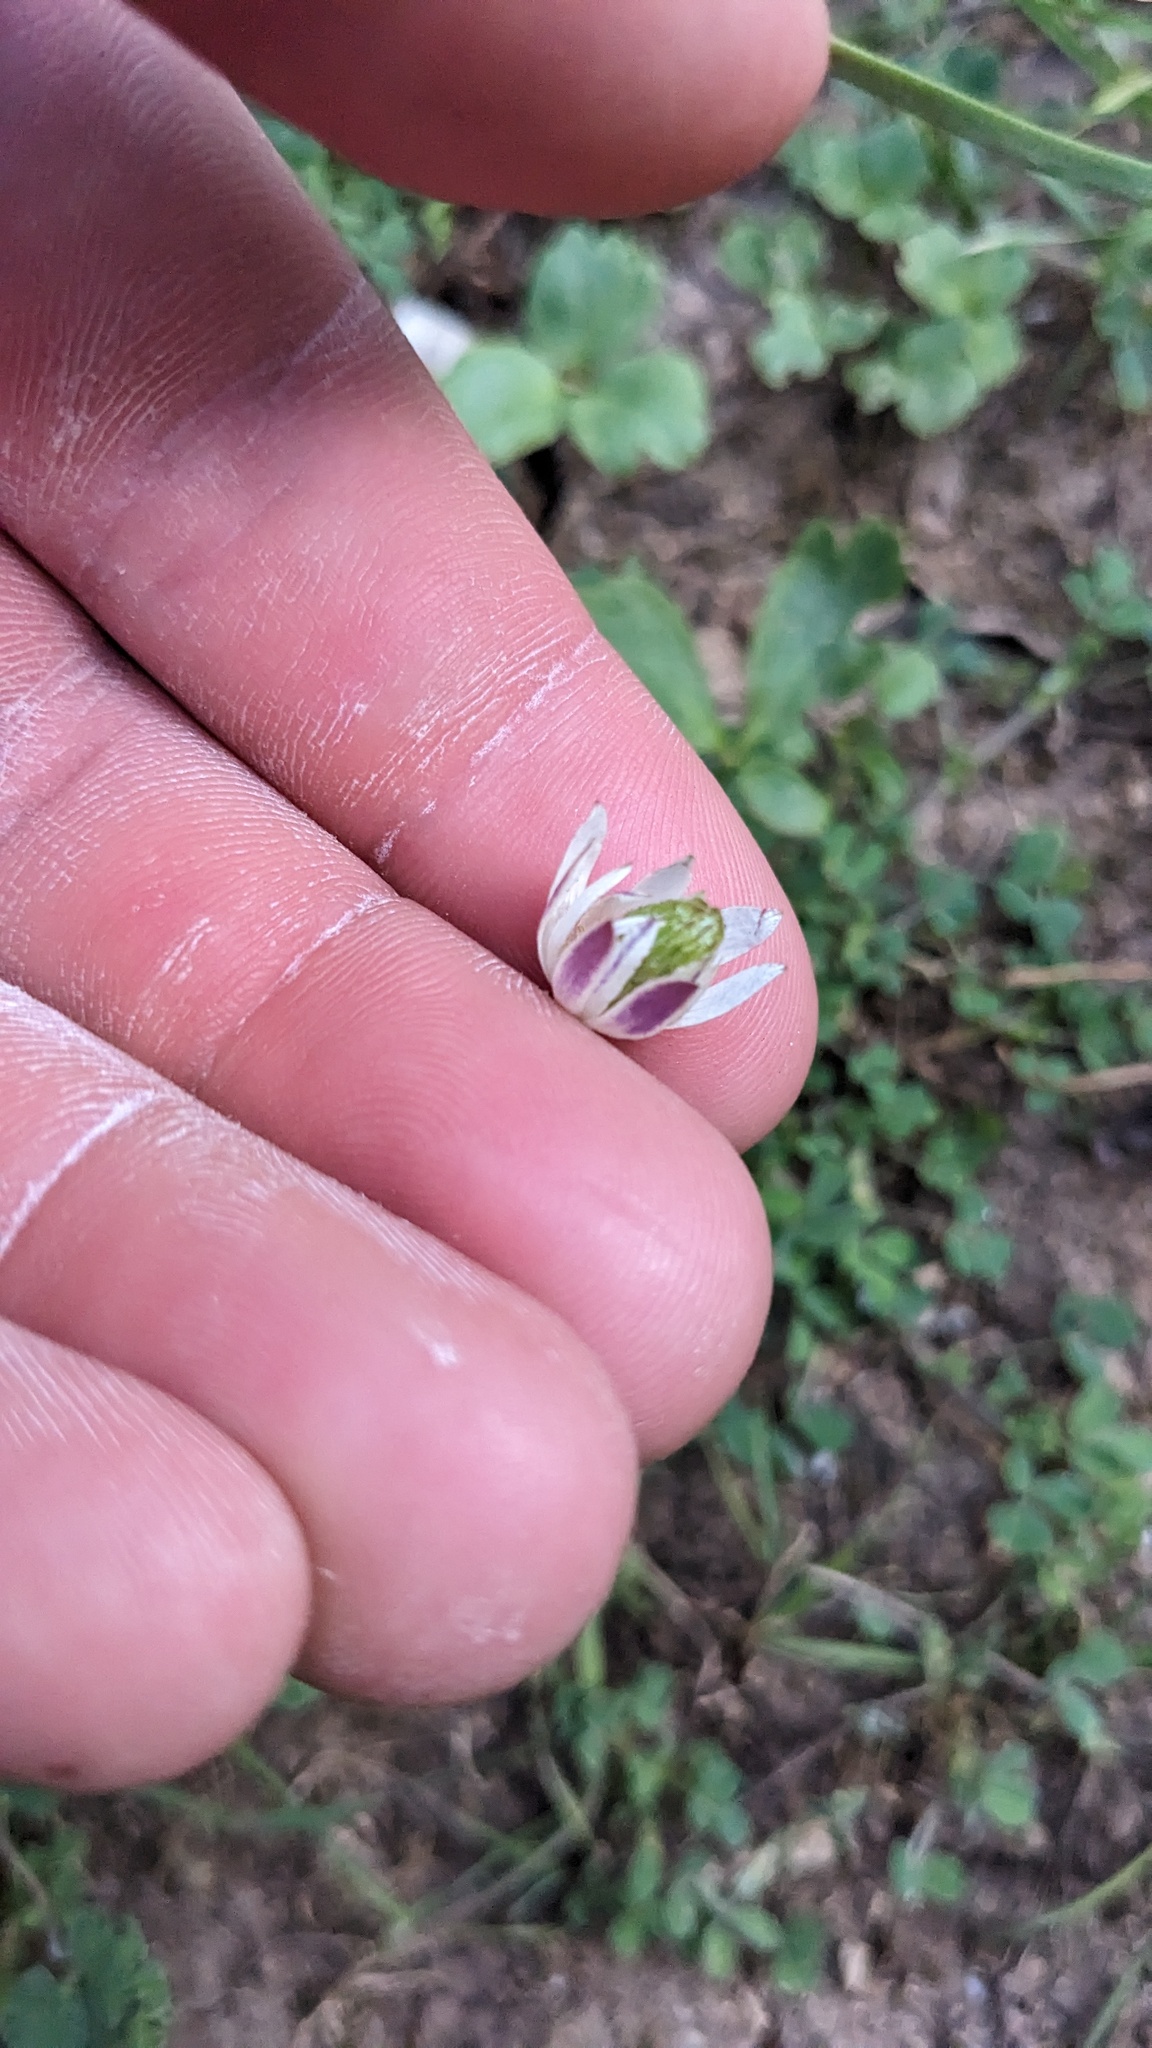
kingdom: Plantae
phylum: Tracheophyta
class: Magnoliopsida
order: Ranunculales
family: Ranunculaceae
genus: Anemone
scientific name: Anemone berlandieri
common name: Ten-petal anemone
